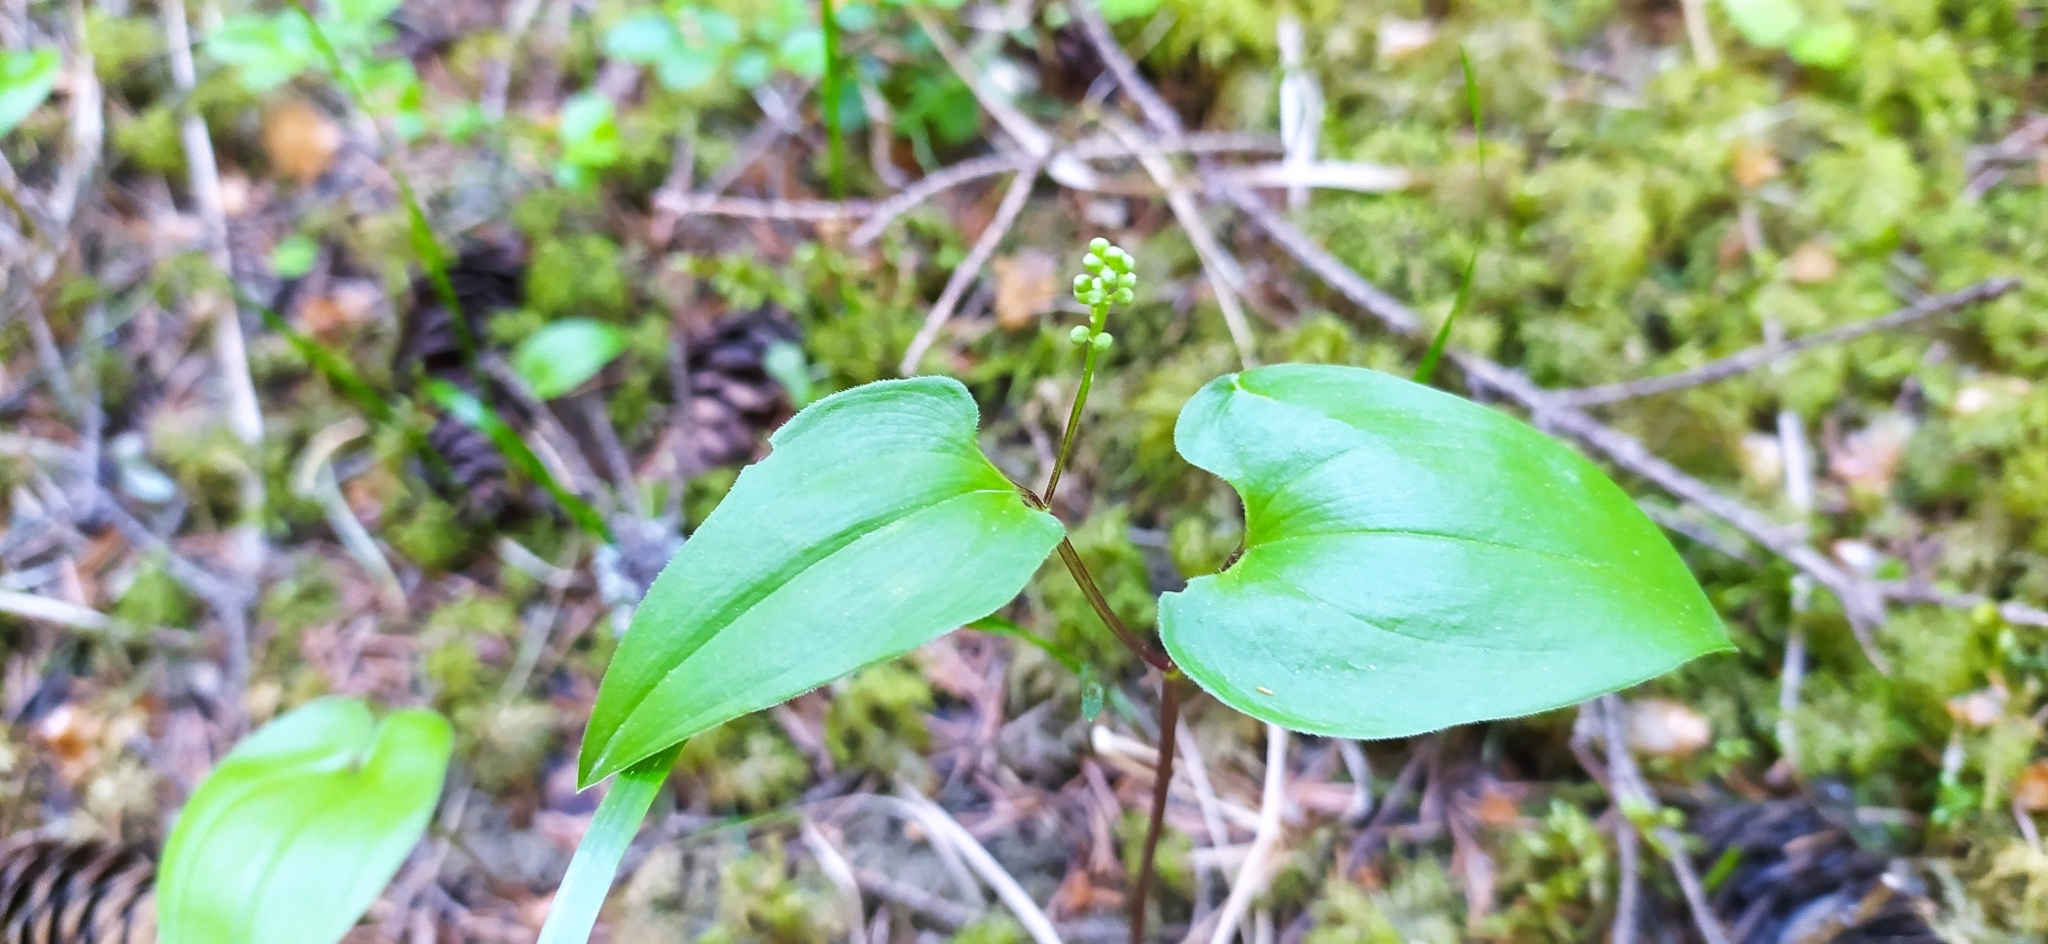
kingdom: Plantae
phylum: Tracheophyta
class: Liliopsida
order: Asparagales
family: Asparagaceae
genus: Maianthemum
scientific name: Maianthemum bifolium
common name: May lily
